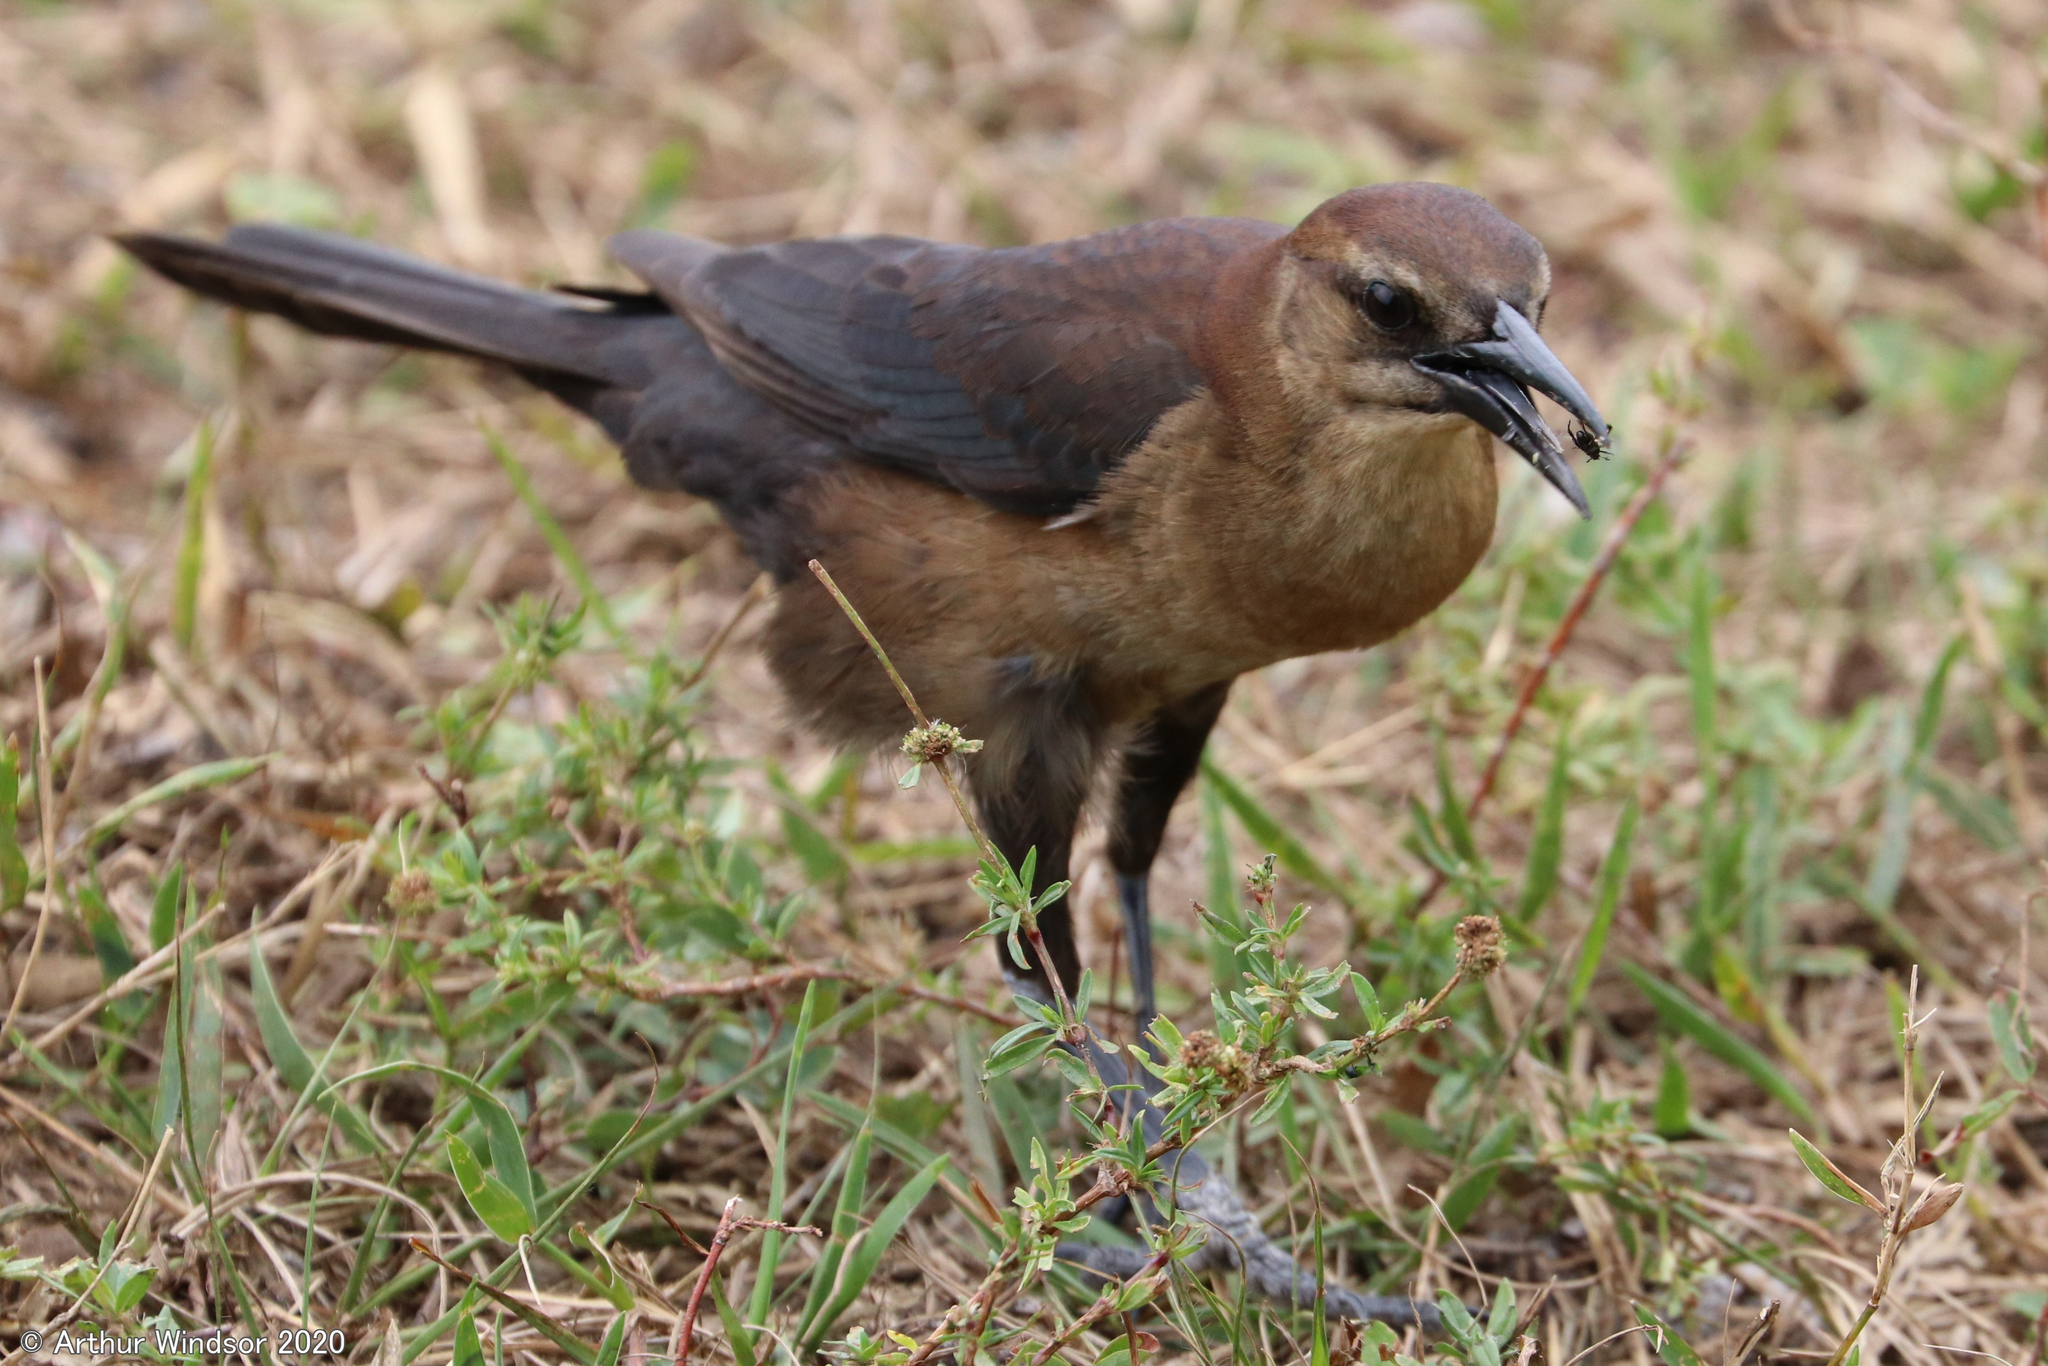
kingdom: Animalia
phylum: Chordata
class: Aves
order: Passeriformes
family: Icteridae
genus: Quiscalus
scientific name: Quiscalus major
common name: Boat-tailed grackle
